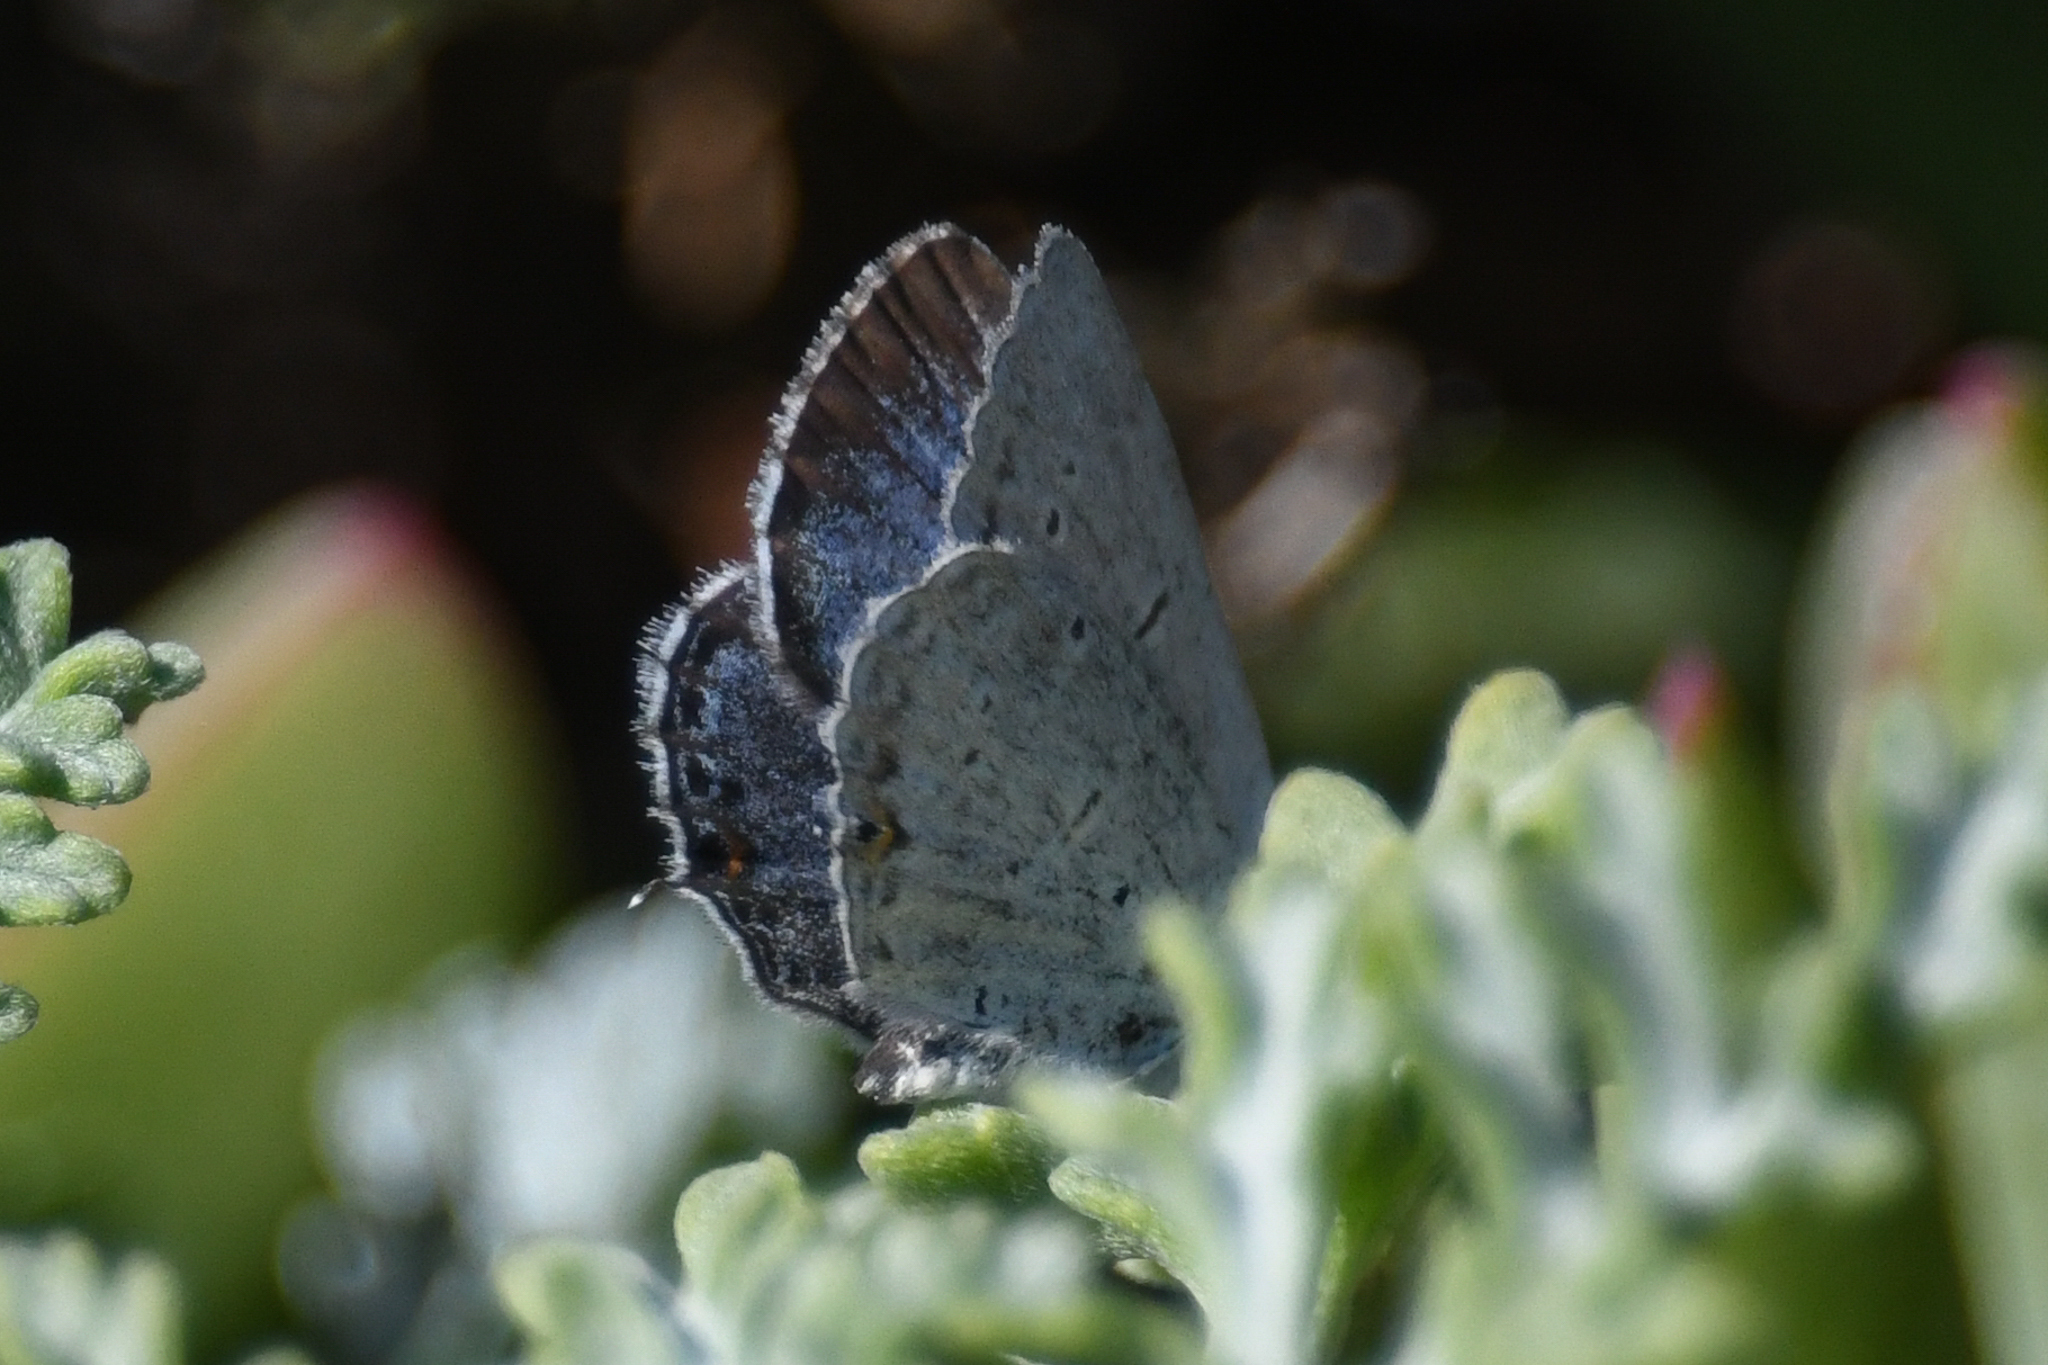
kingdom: Animalia
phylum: Arthropoda
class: Insecta
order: Lepidoptera
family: Lycaenidae
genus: Elkalyce
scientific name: Elkalyce amyntula
